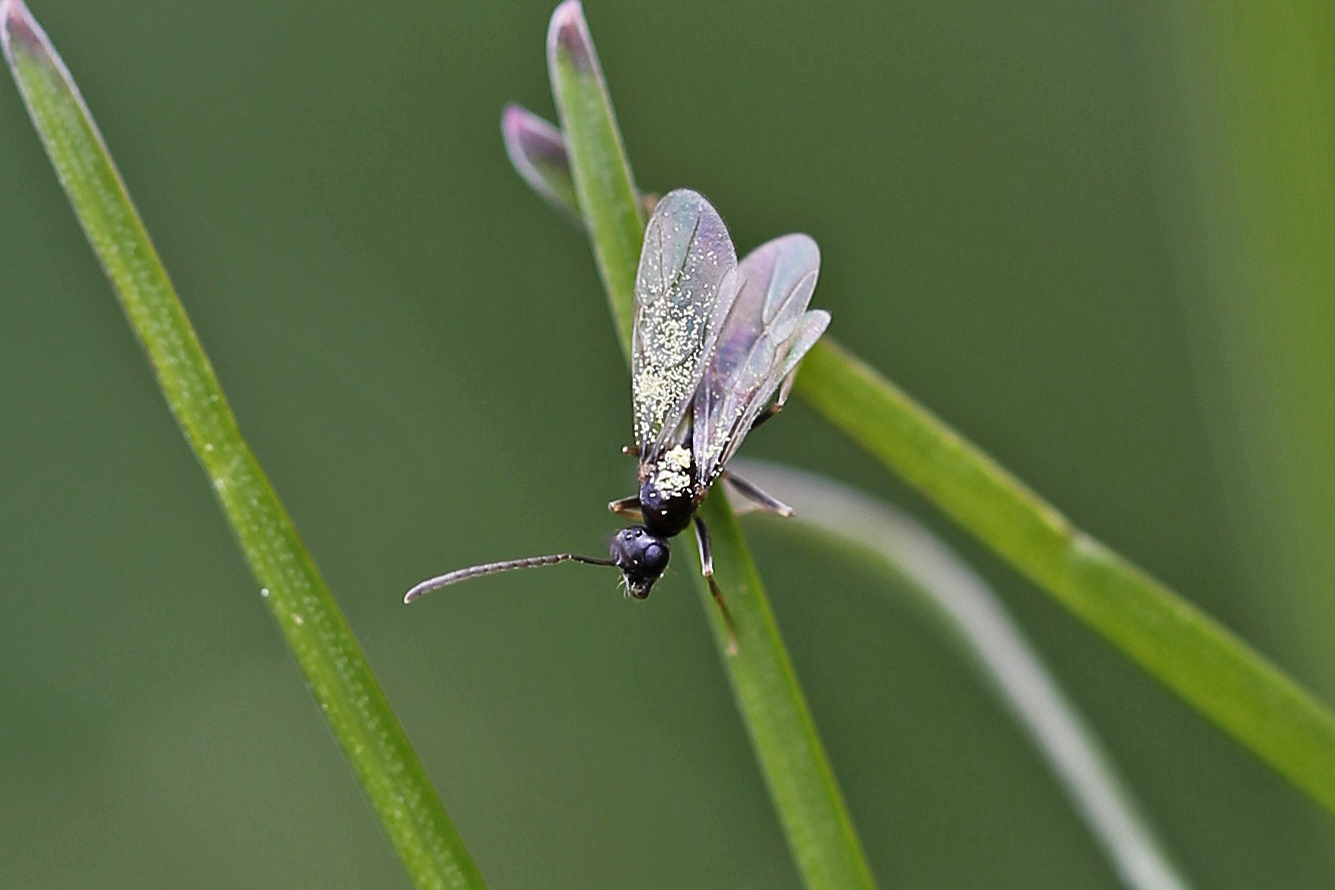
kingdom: Animalia
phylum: Arthropoda
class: Insecta
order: Hymenoptera
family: Formicidae
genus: Prenolepis
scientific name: Prenolepis imparis
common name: Small honey ant
